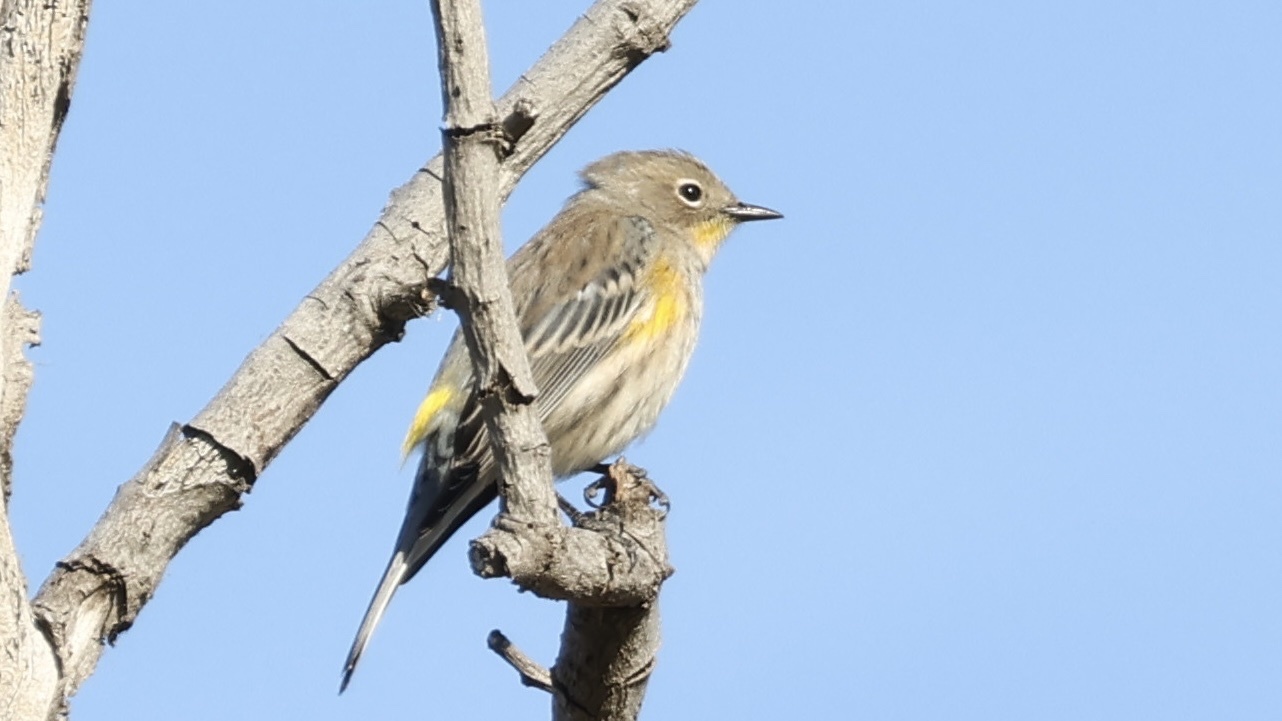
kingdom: Animalia
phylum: Chordata
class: Aves
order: Passeriformes
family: Parulidae
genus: Setophaga
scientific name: Setophaga coronata
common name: Myrtle warbler
